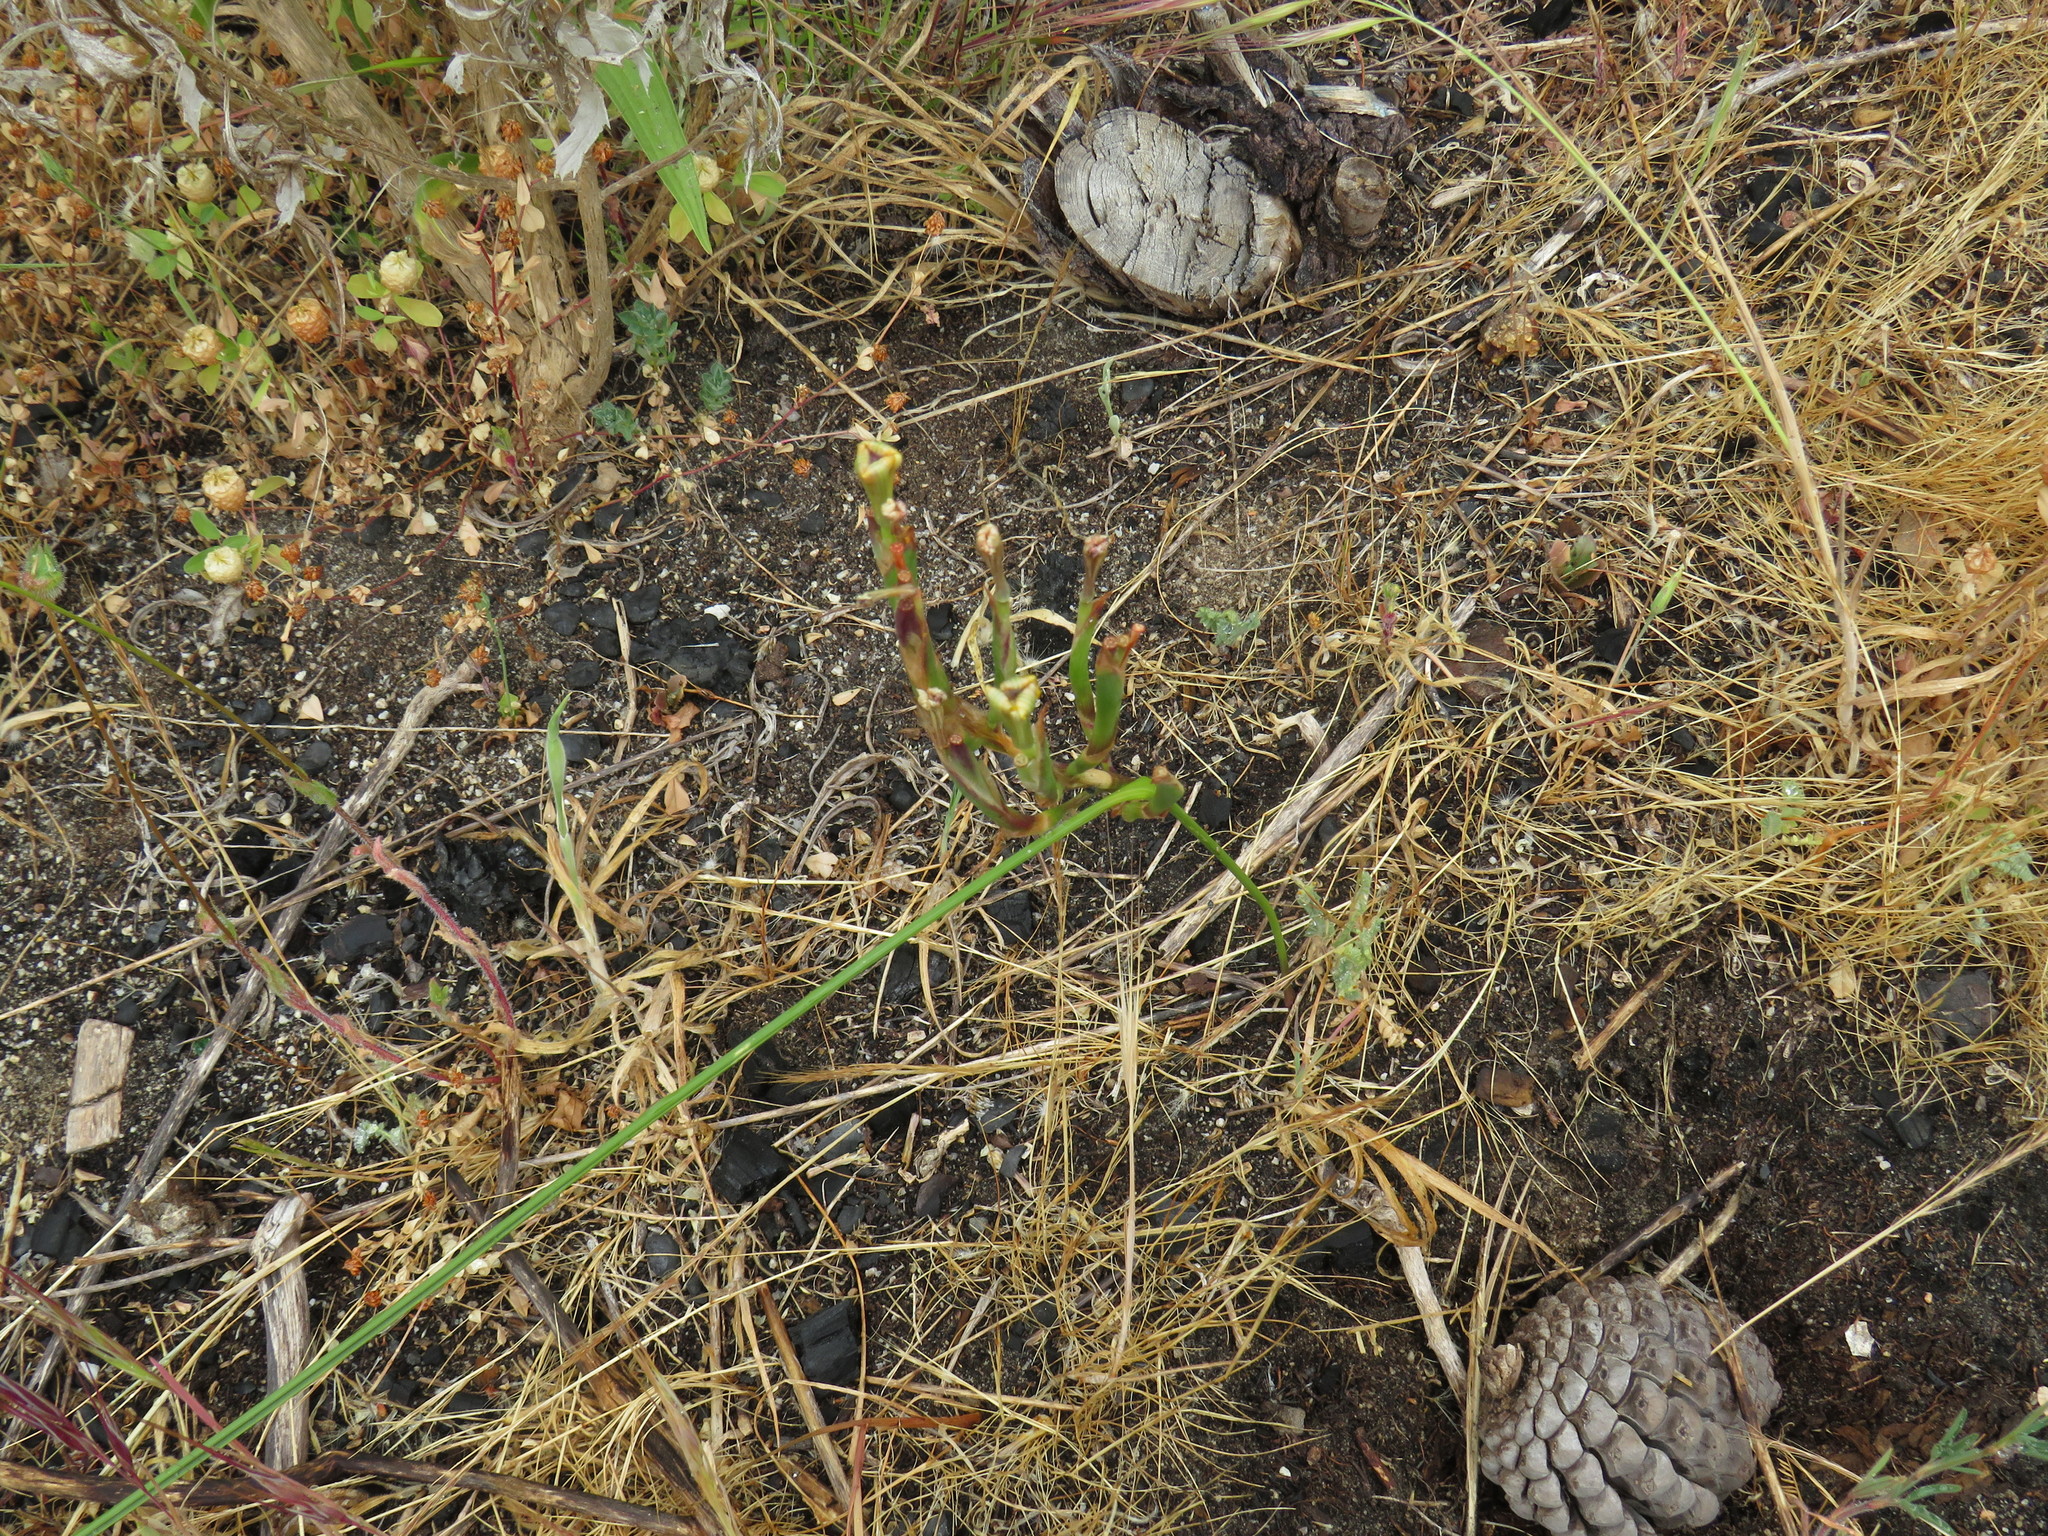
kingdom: Plantae
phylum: Tracheophyta
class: Liliopsida
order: Asparagales
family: Iridaceae
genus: Moraea
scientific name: Moraea fugax
